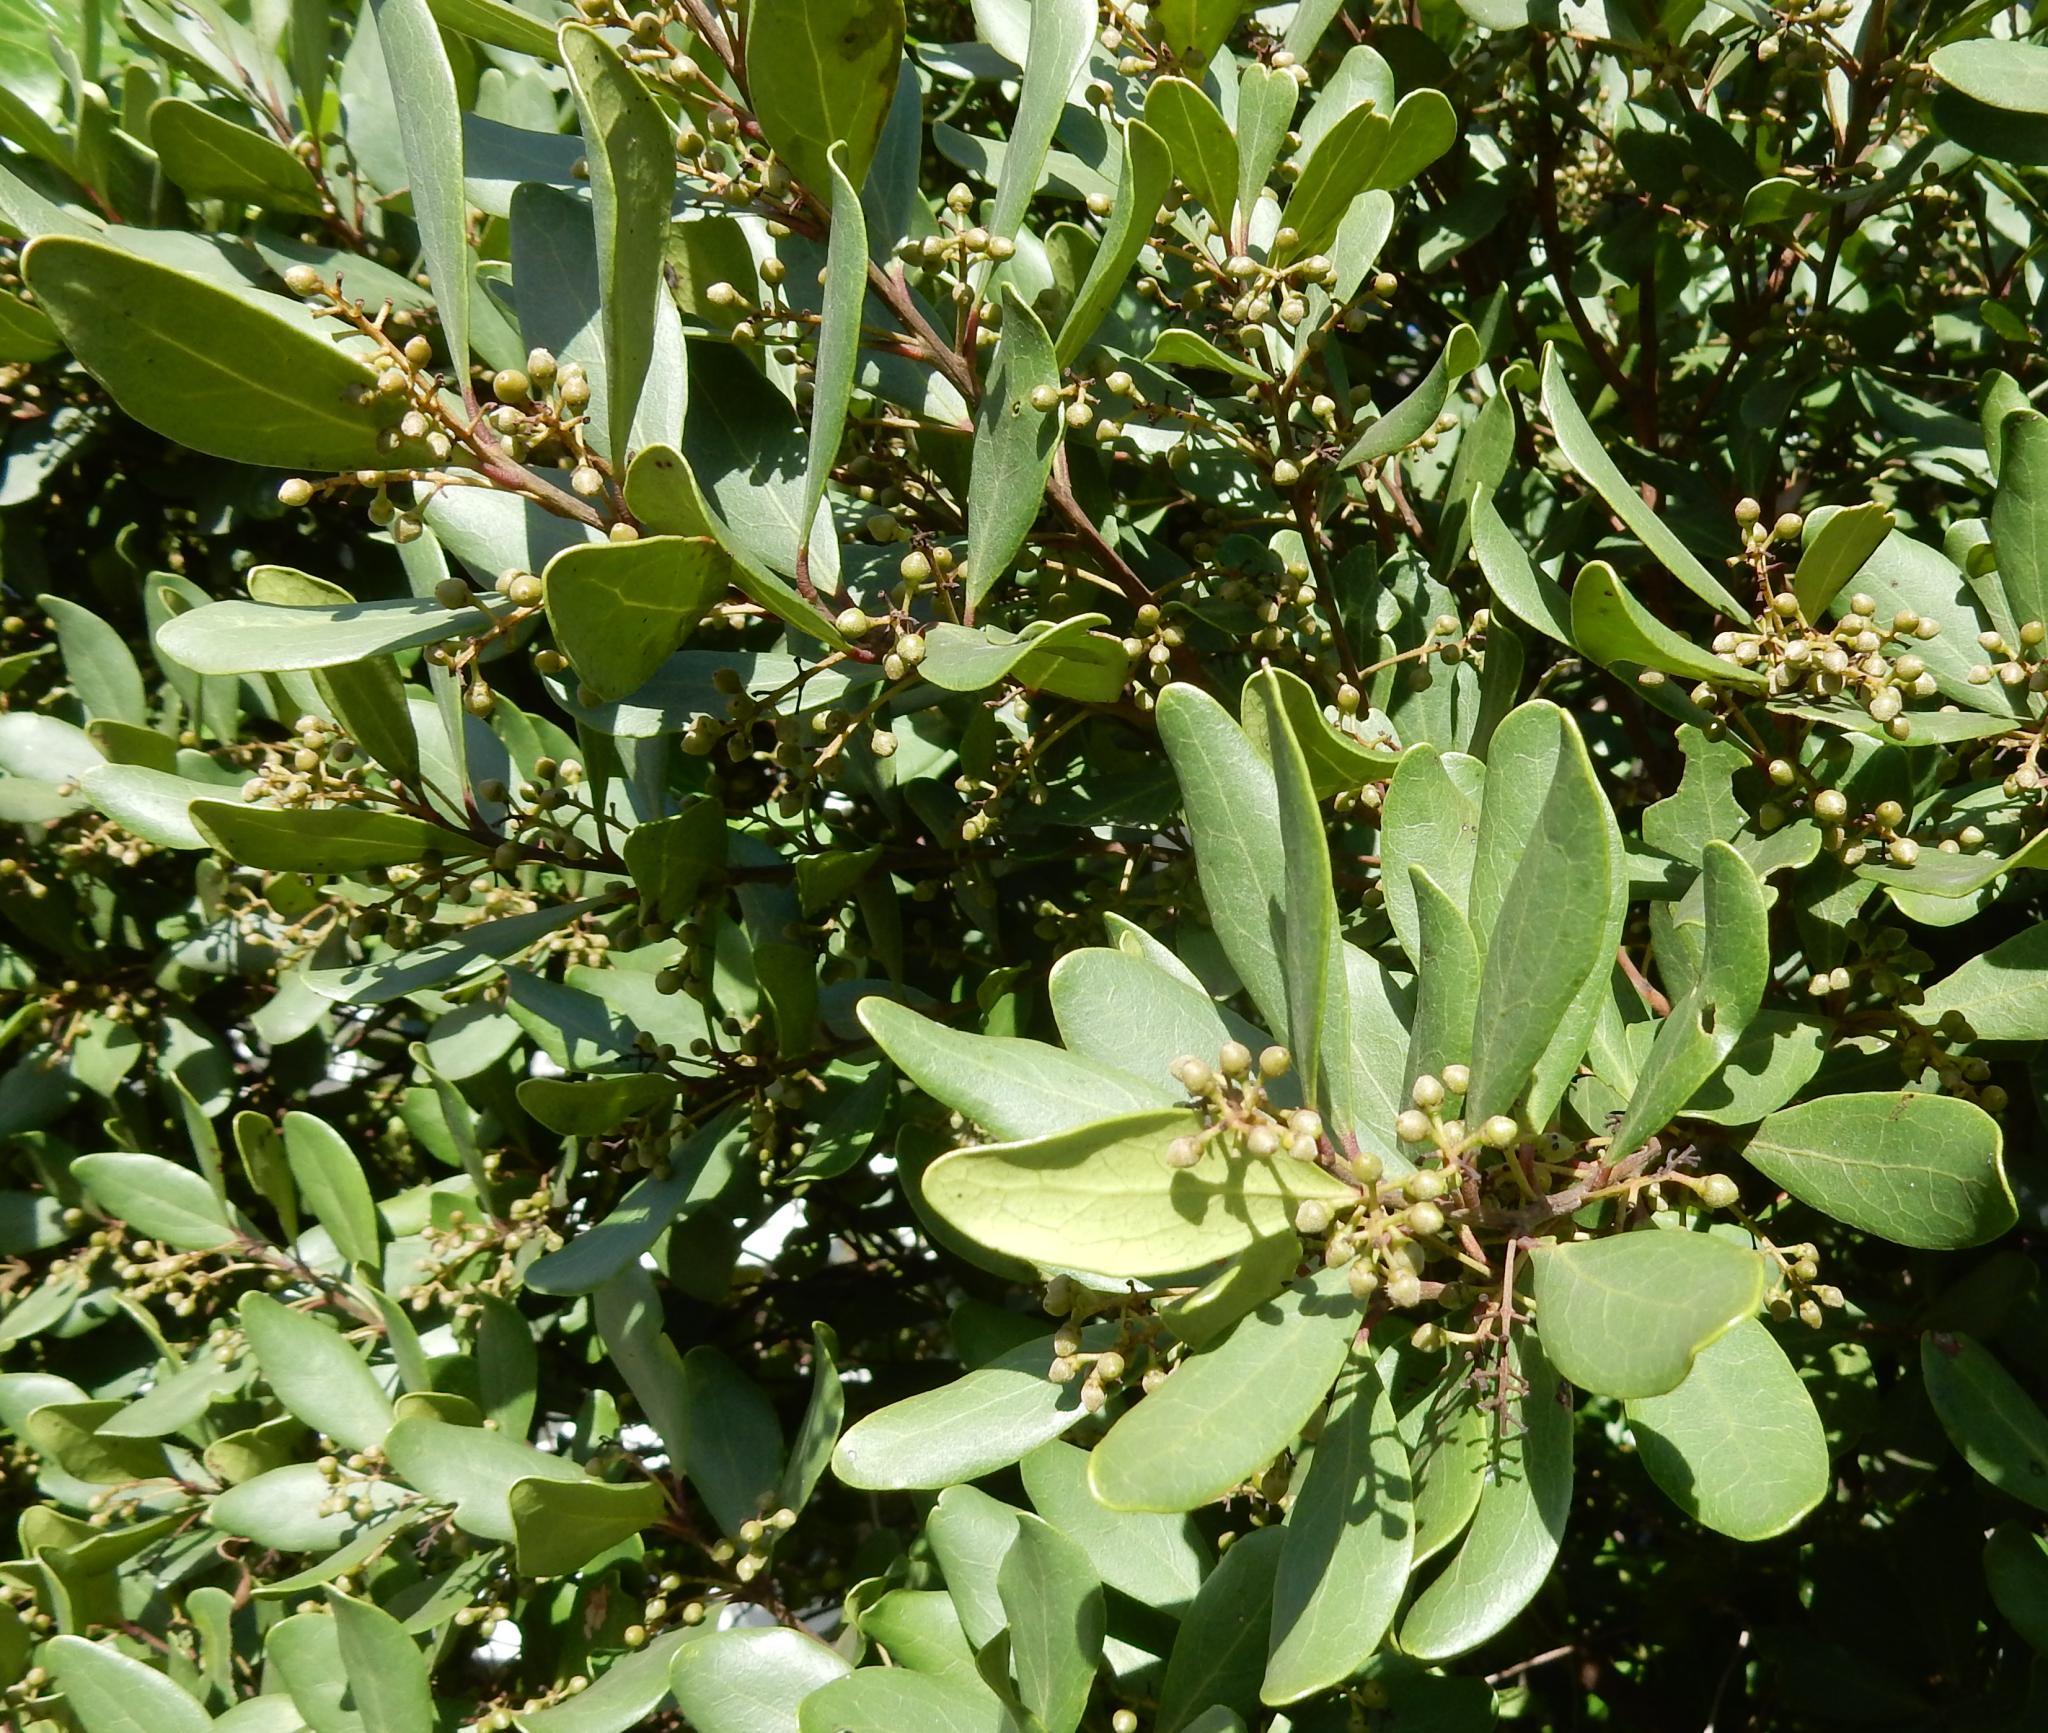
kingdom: Plantae
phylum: Tracheophyta
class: Magnoliopsida
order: Ericales
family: Ebenaceae
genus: Euclea
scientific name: Euclea racemosa
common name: Dune guarri
